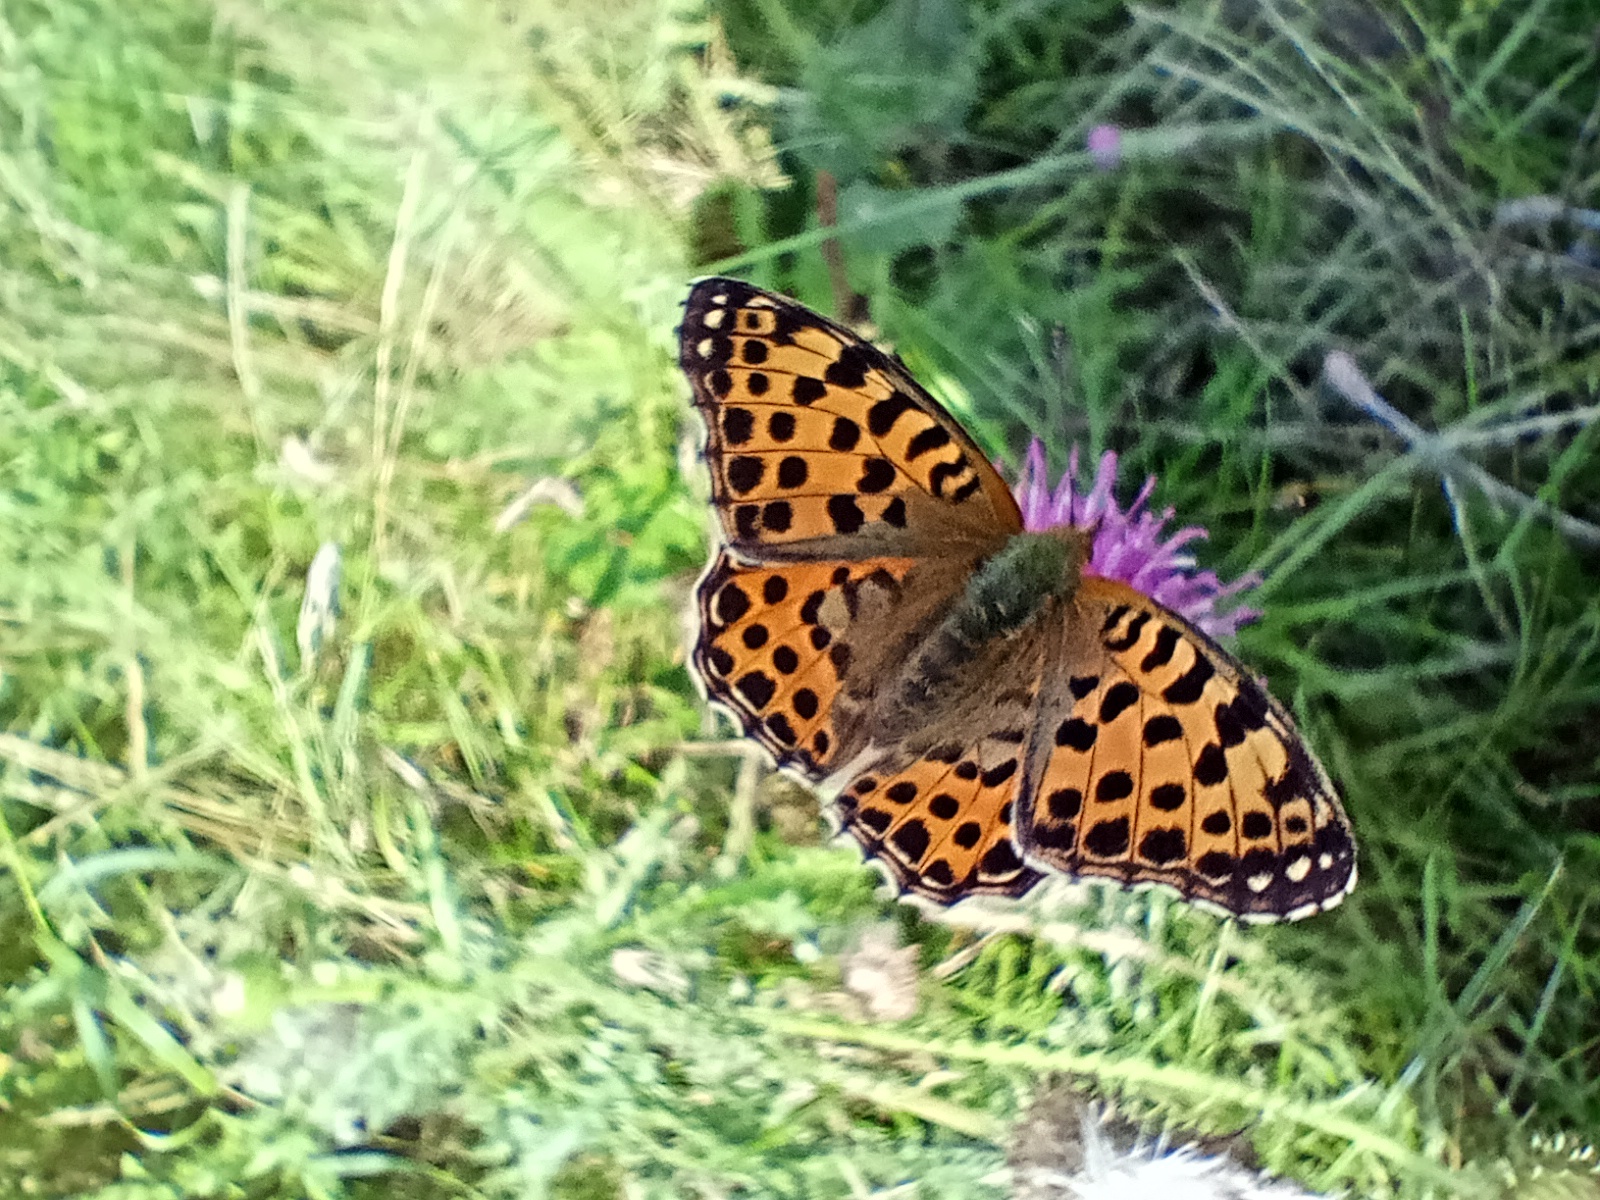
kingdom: Animalia
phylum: Arthropoda
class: Insecta
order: Lepidoptera
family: Nymphalidae
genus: Issoria
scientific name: Issoria lathonia
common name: Queen of spain fritillary
